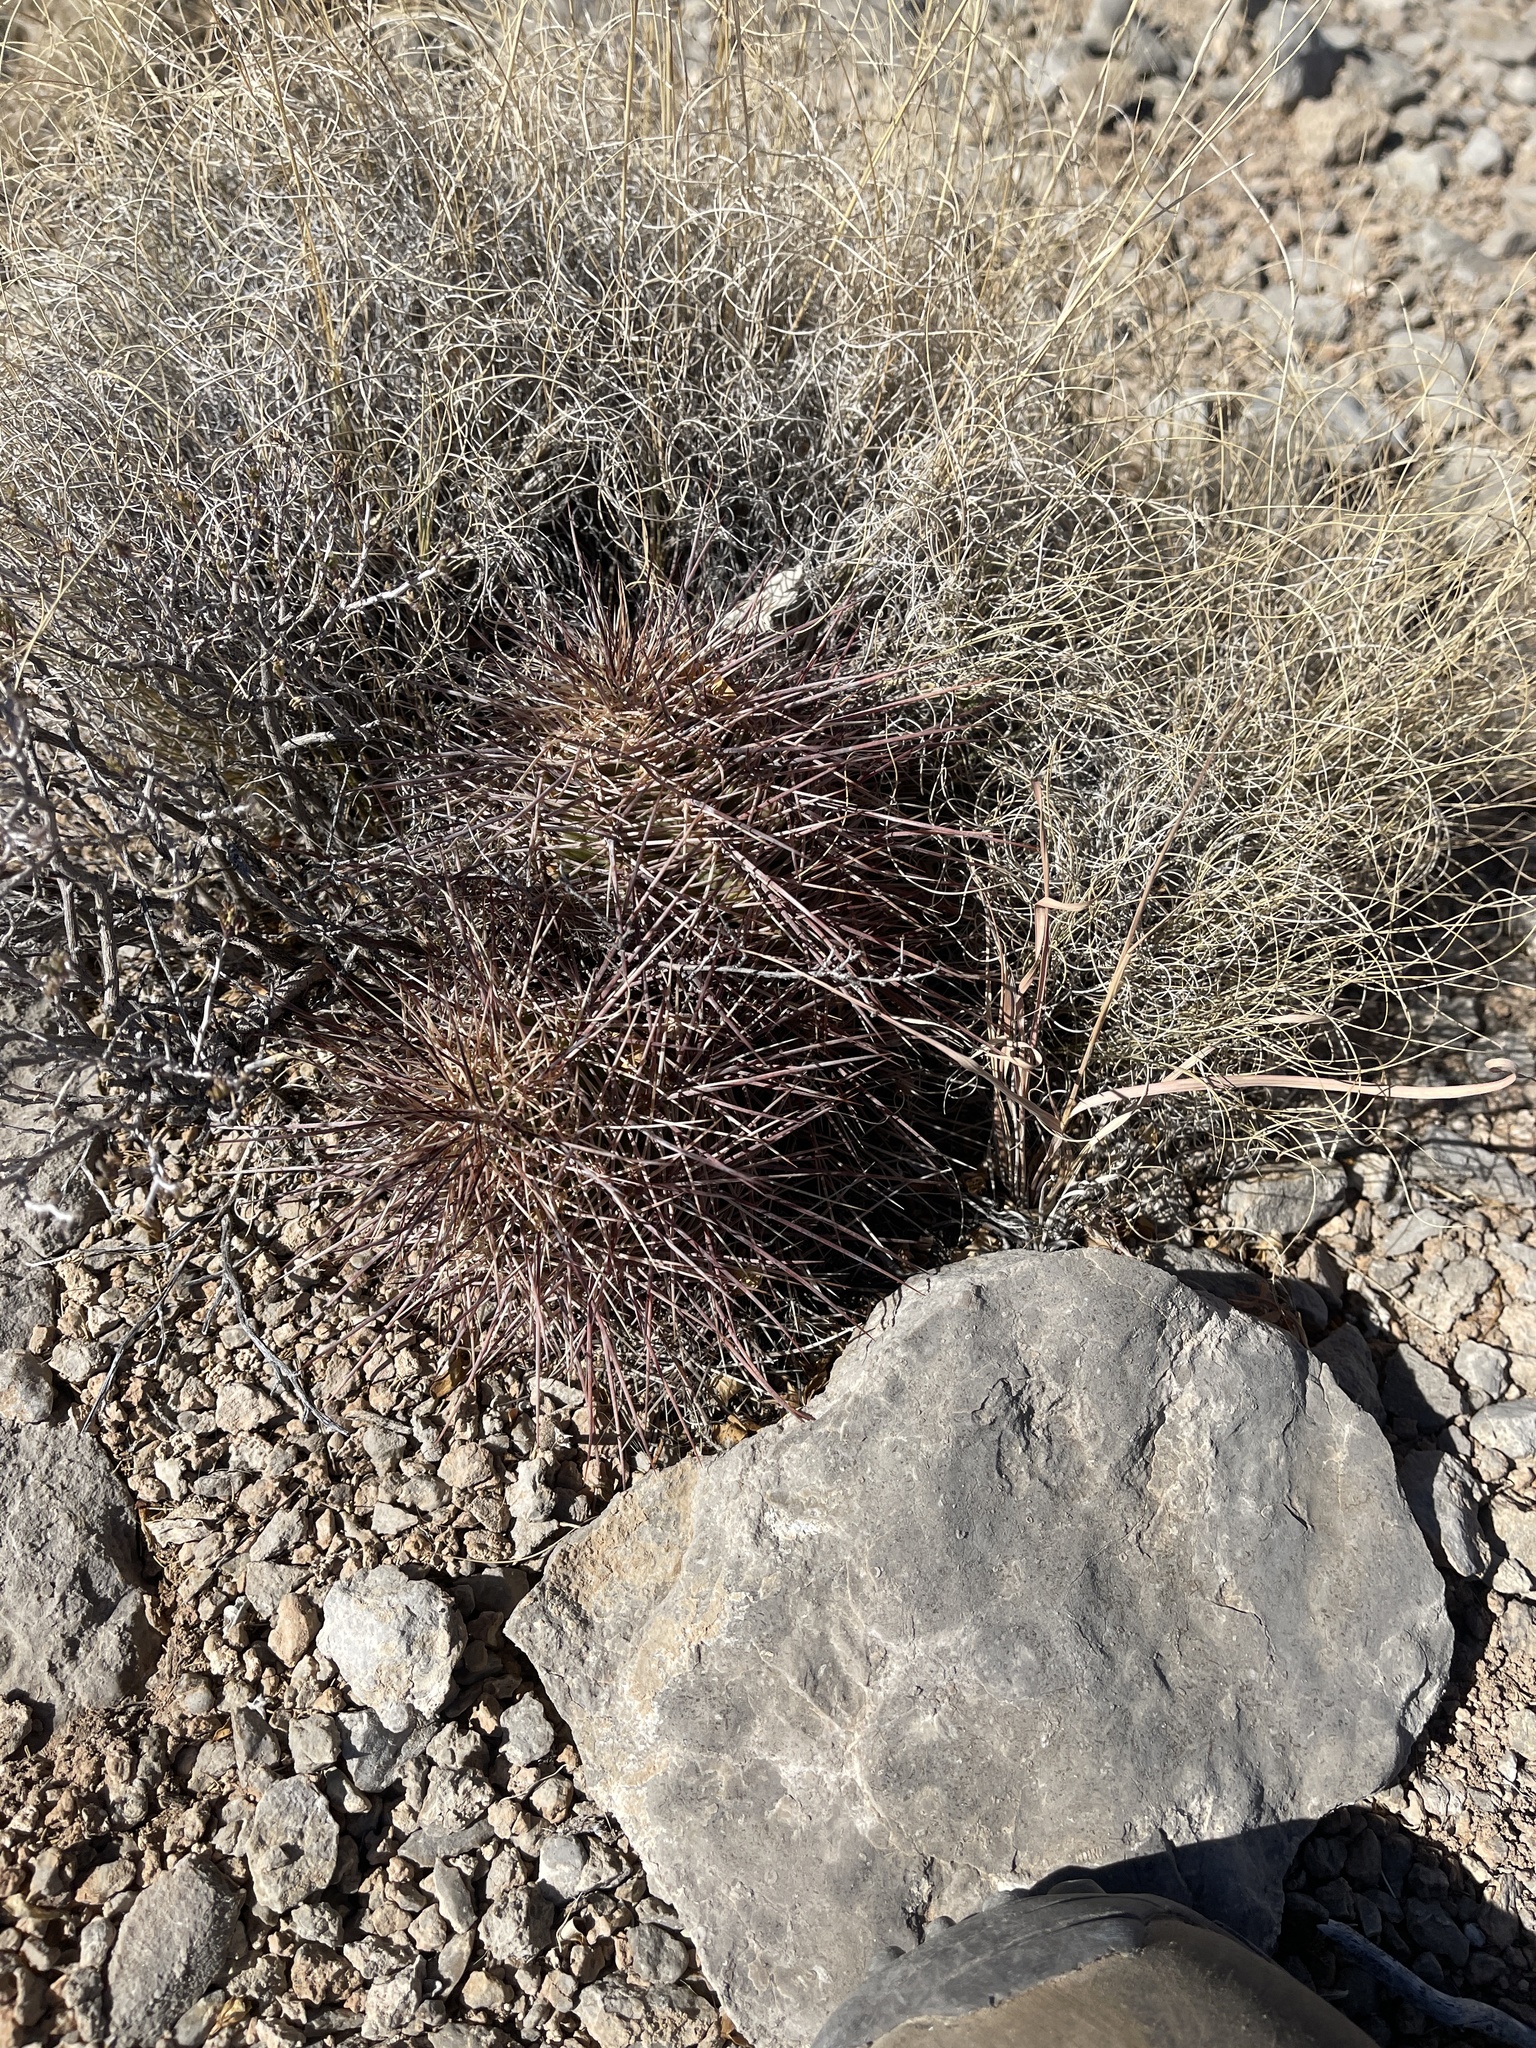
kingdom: Plantae
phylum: Tracheophyta
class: Magnoliopsida
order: Caryophyllales
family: Cactaceae
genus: Echinocereus
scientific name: Echinocereus coccineus
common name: Scarlet hedgehog cactus
